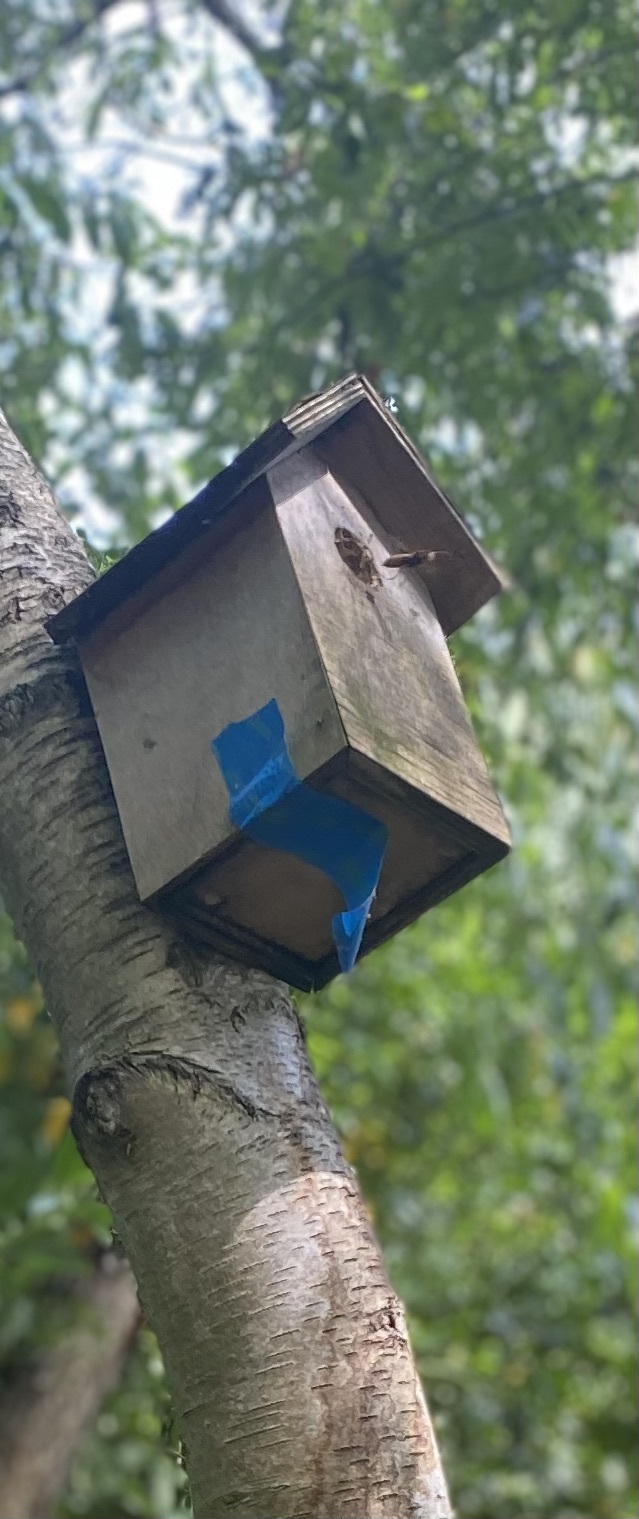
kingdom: Animalia
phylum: Arthropoda
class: Insecta
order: Hymenoptera
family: Vespidae
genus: Vespa
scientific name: Vespa crabro
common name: Hornet
